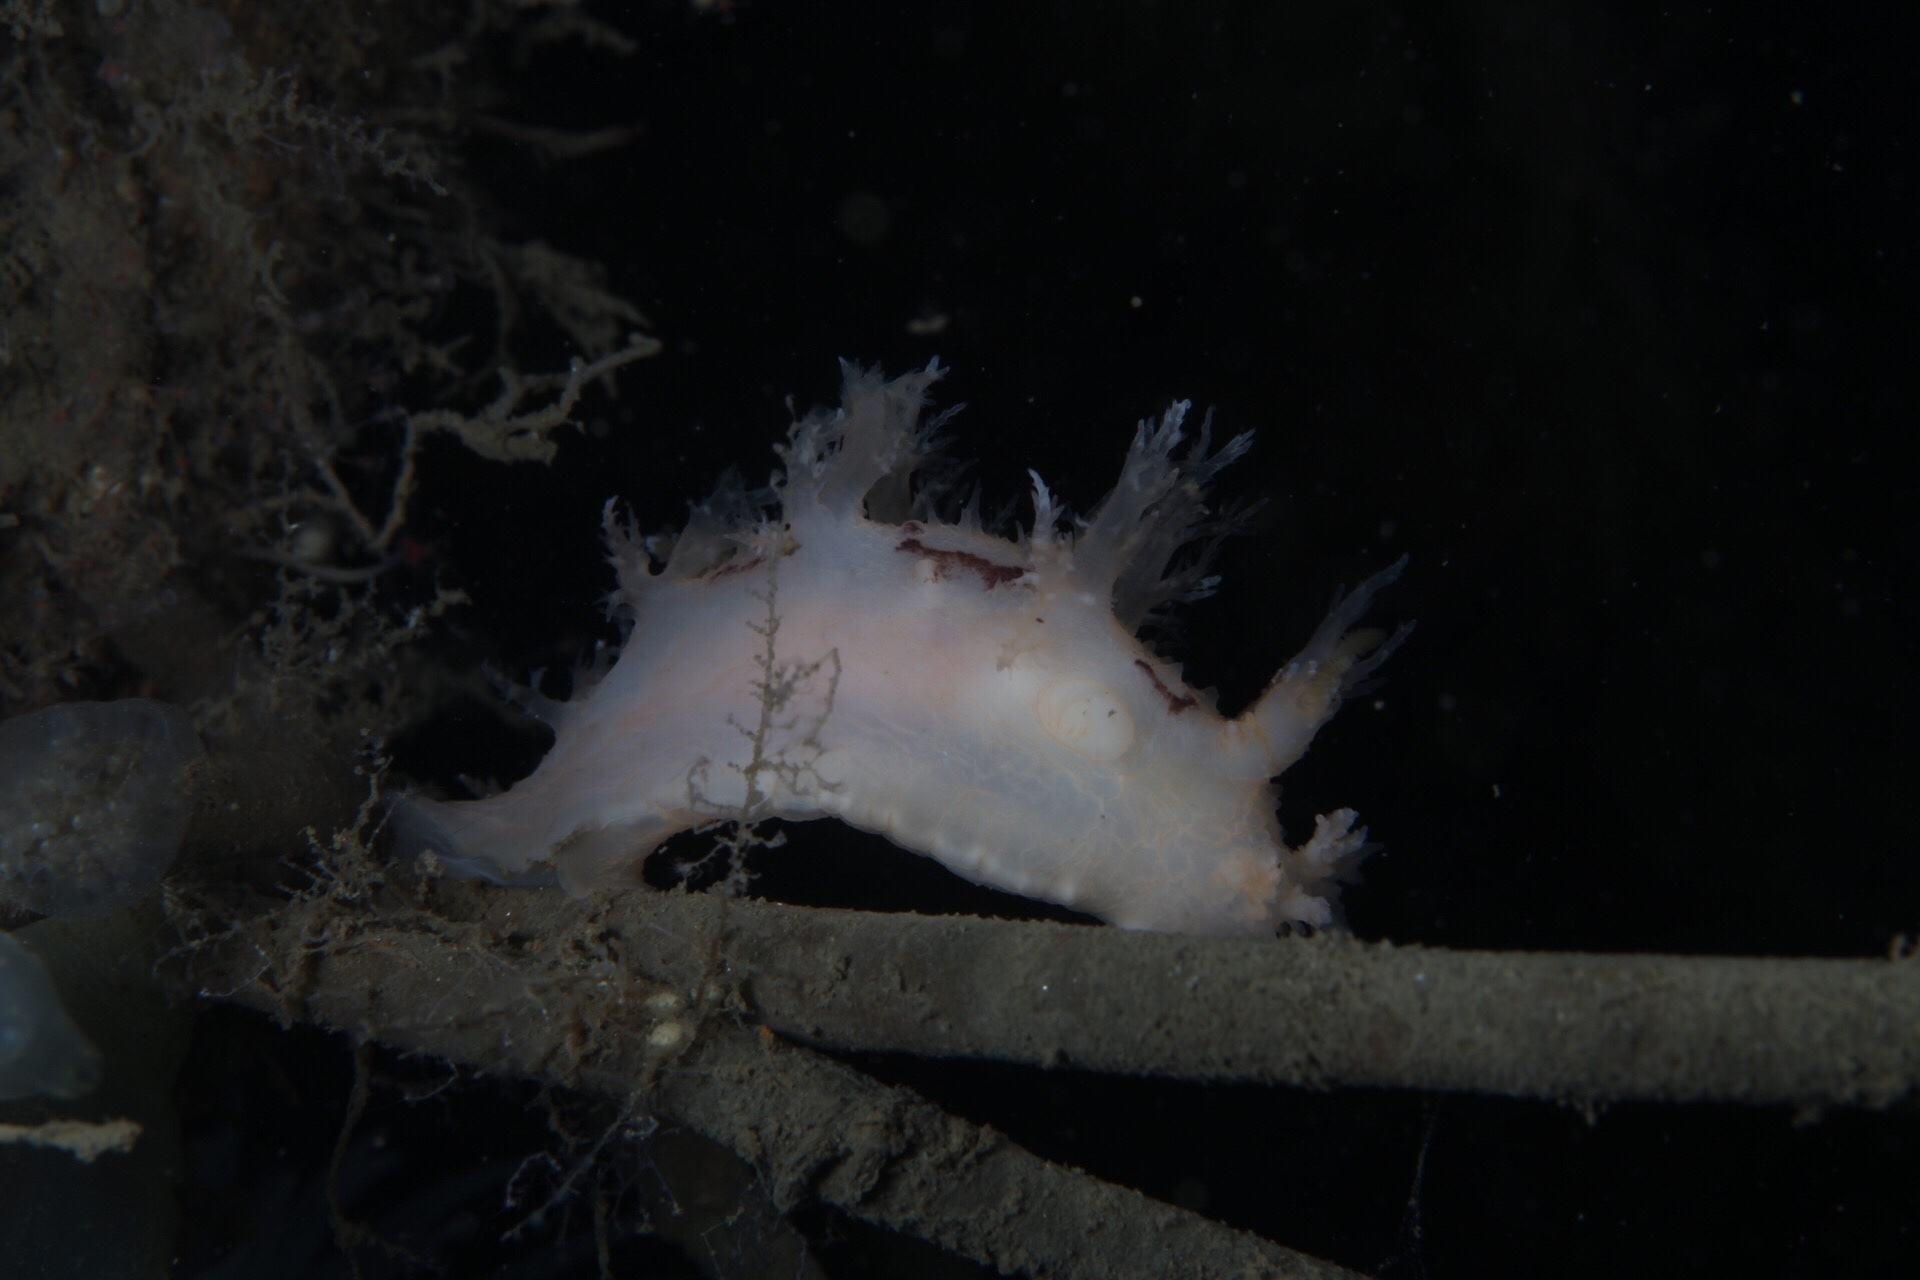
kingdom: Animalia
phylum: Mollusca
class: Gastropoda
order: Nudibranchia
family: Dendronotidae
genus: Dendronotus
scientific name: Dendronotus lacteus
